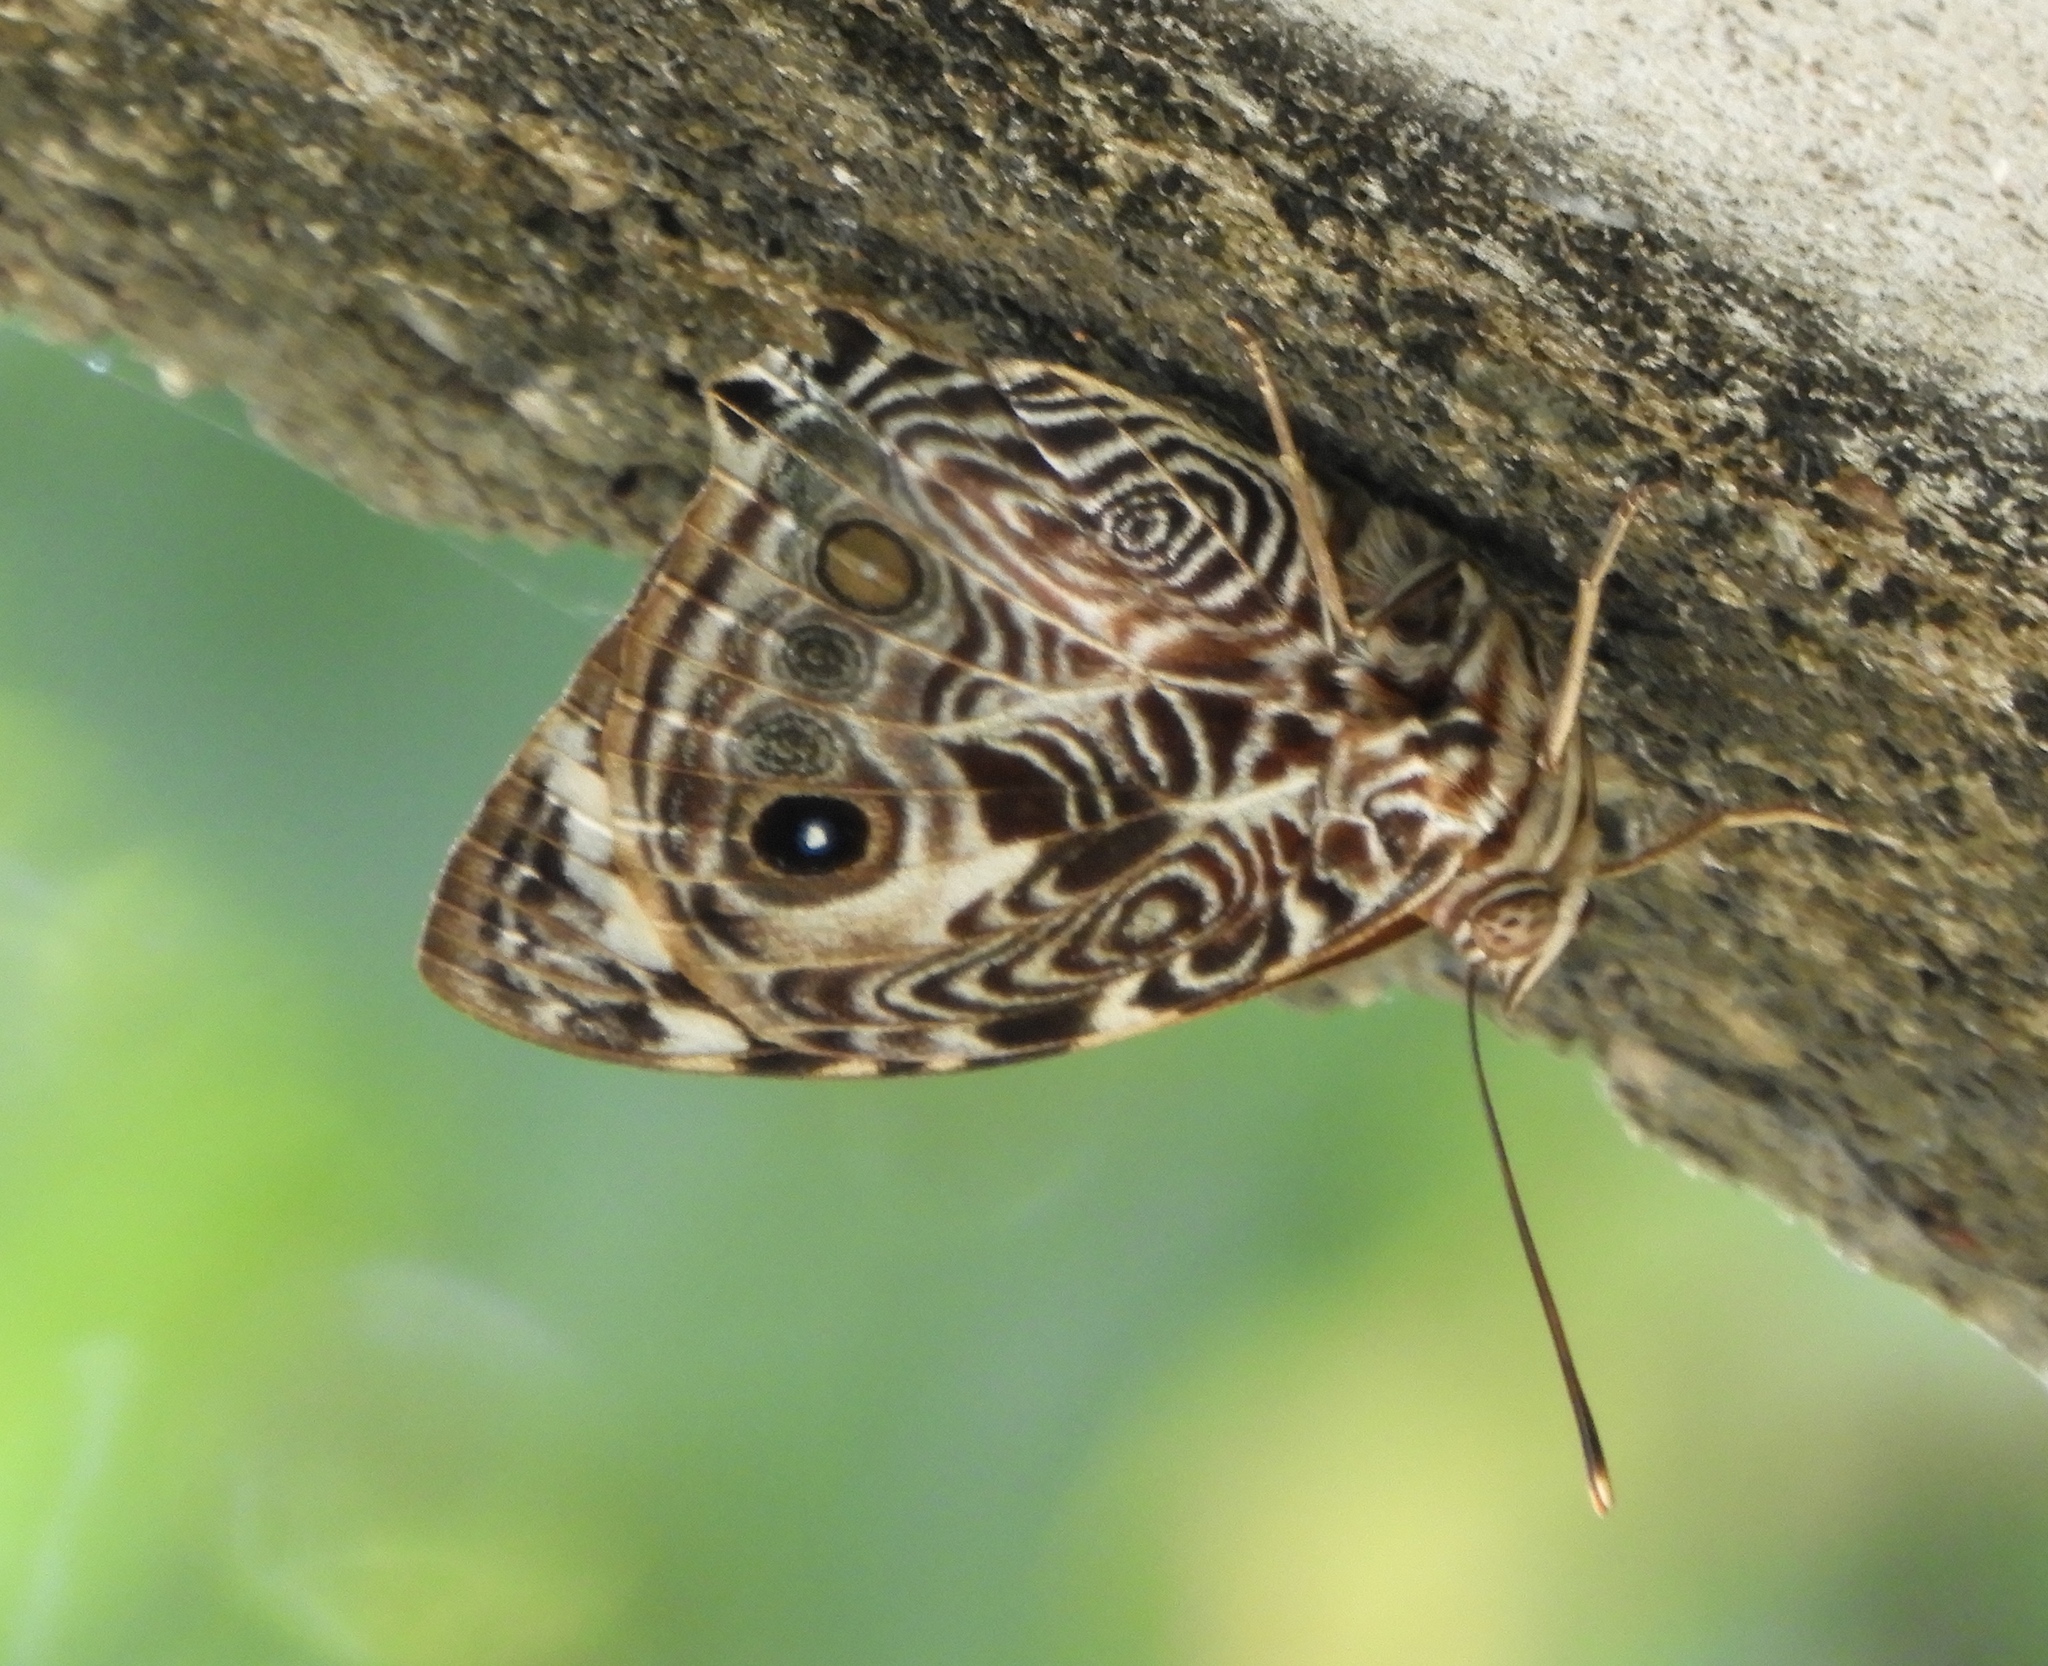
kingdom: Animalia
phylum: Arthropoda
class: Insecta
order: Lepidoptera
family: Nymphalidae
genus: Smyrna
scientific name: Smyrna blomfildia
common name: Blomfild's beauty
